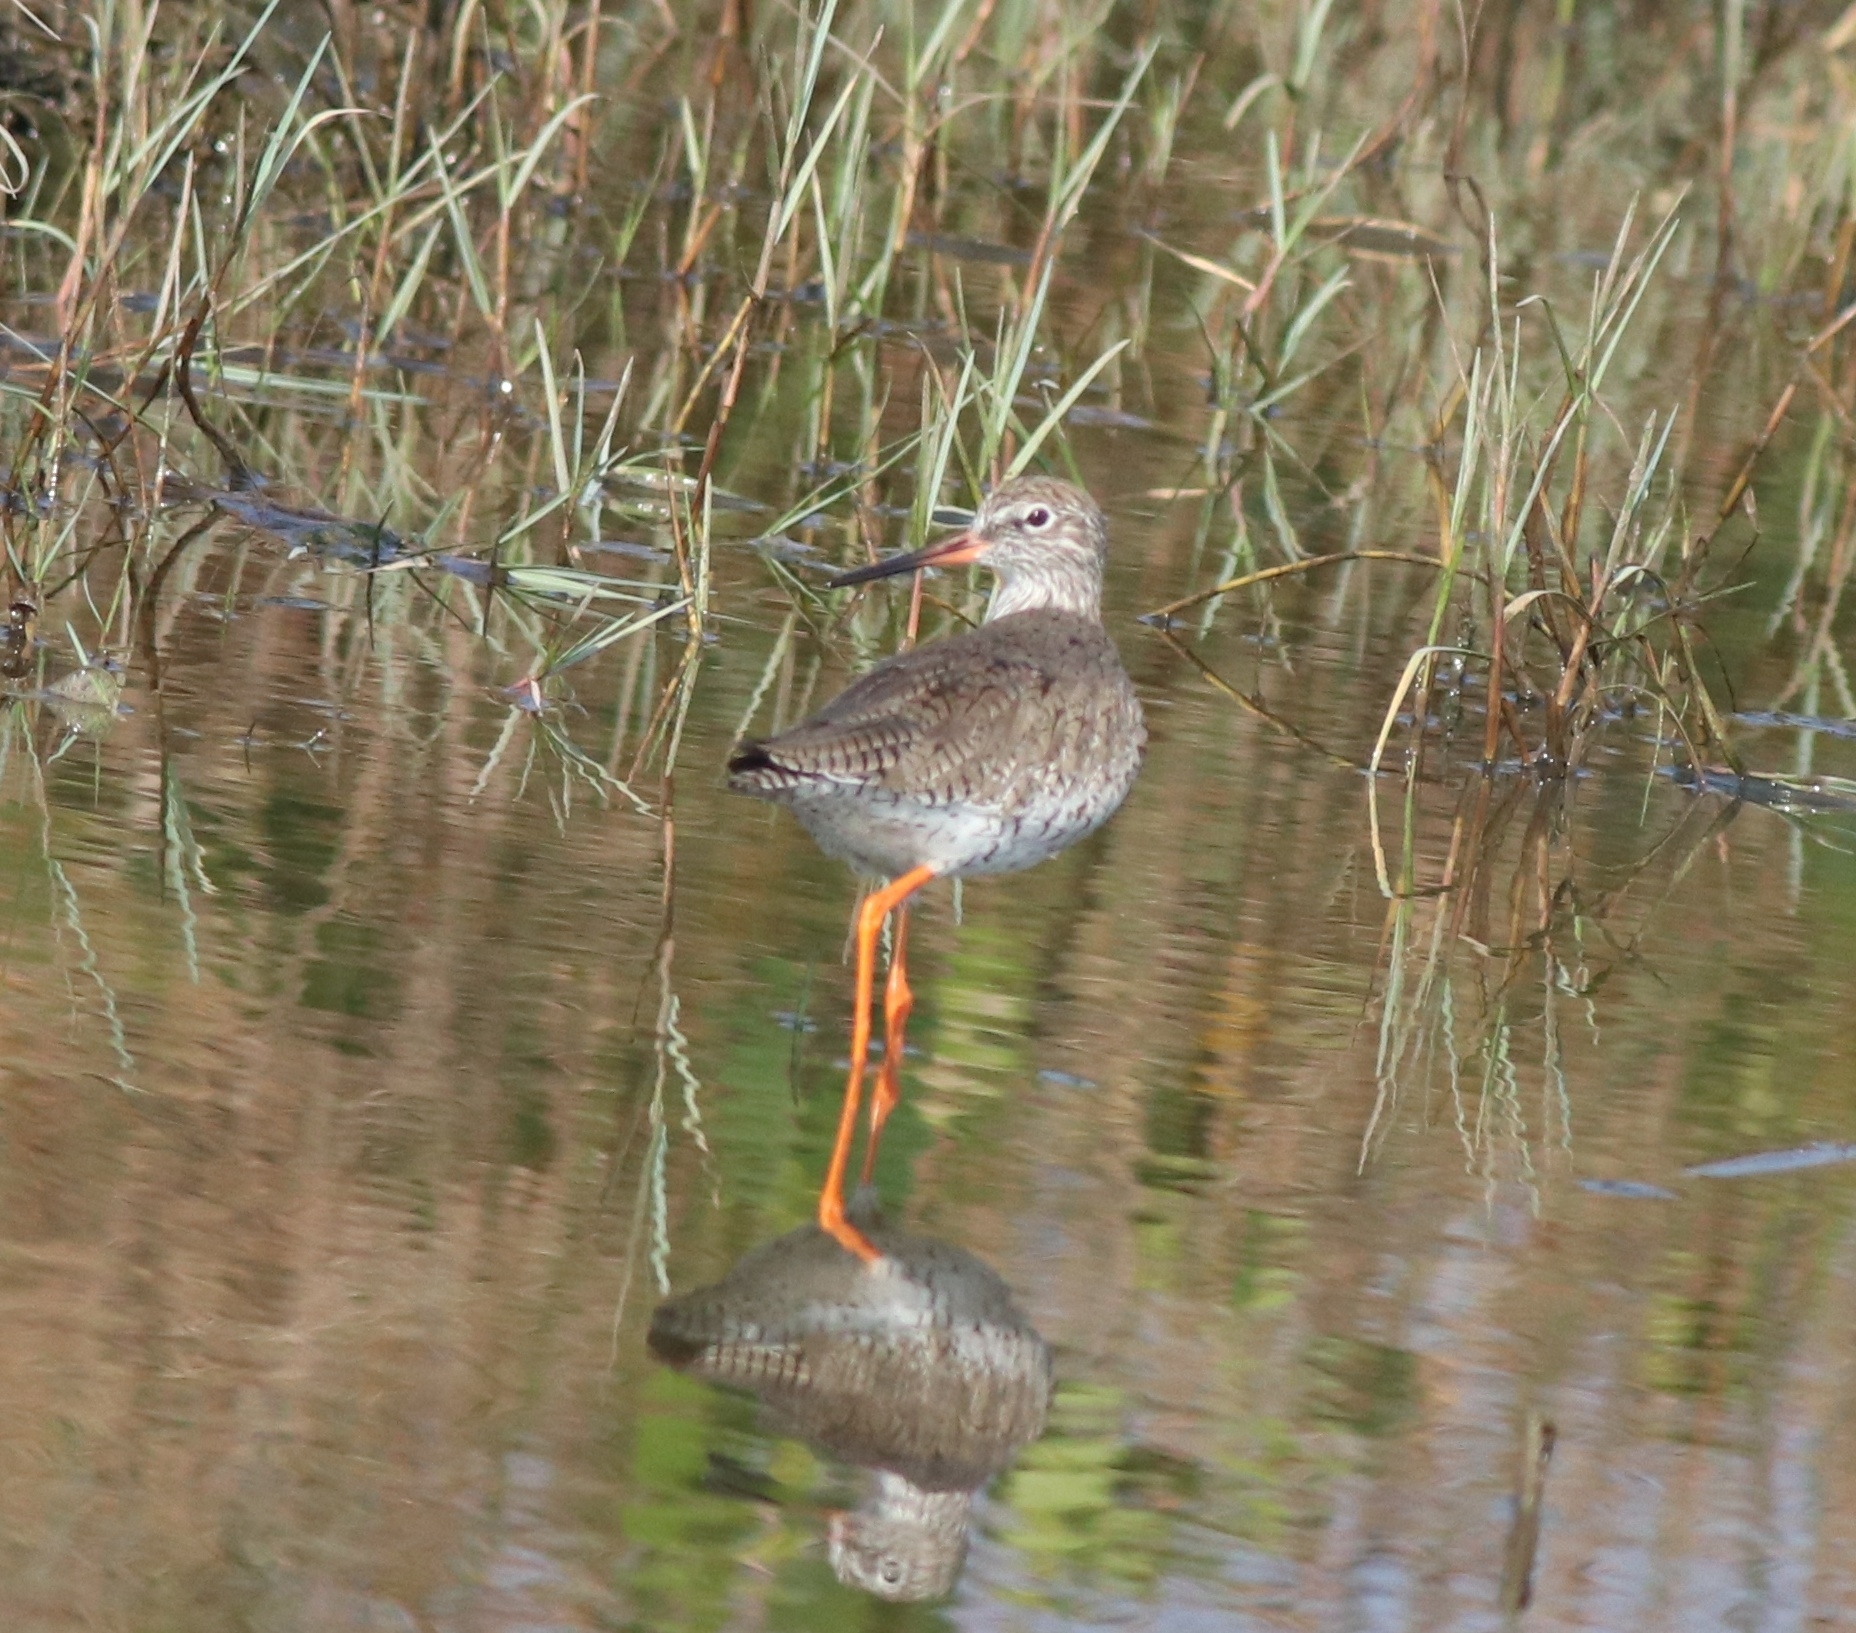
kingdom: Animalia
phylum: Chordata
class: Aves
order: Charadriiformes
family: Scolopacidae
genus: Tringa
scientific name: Tringa totanus
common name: Common redshank
